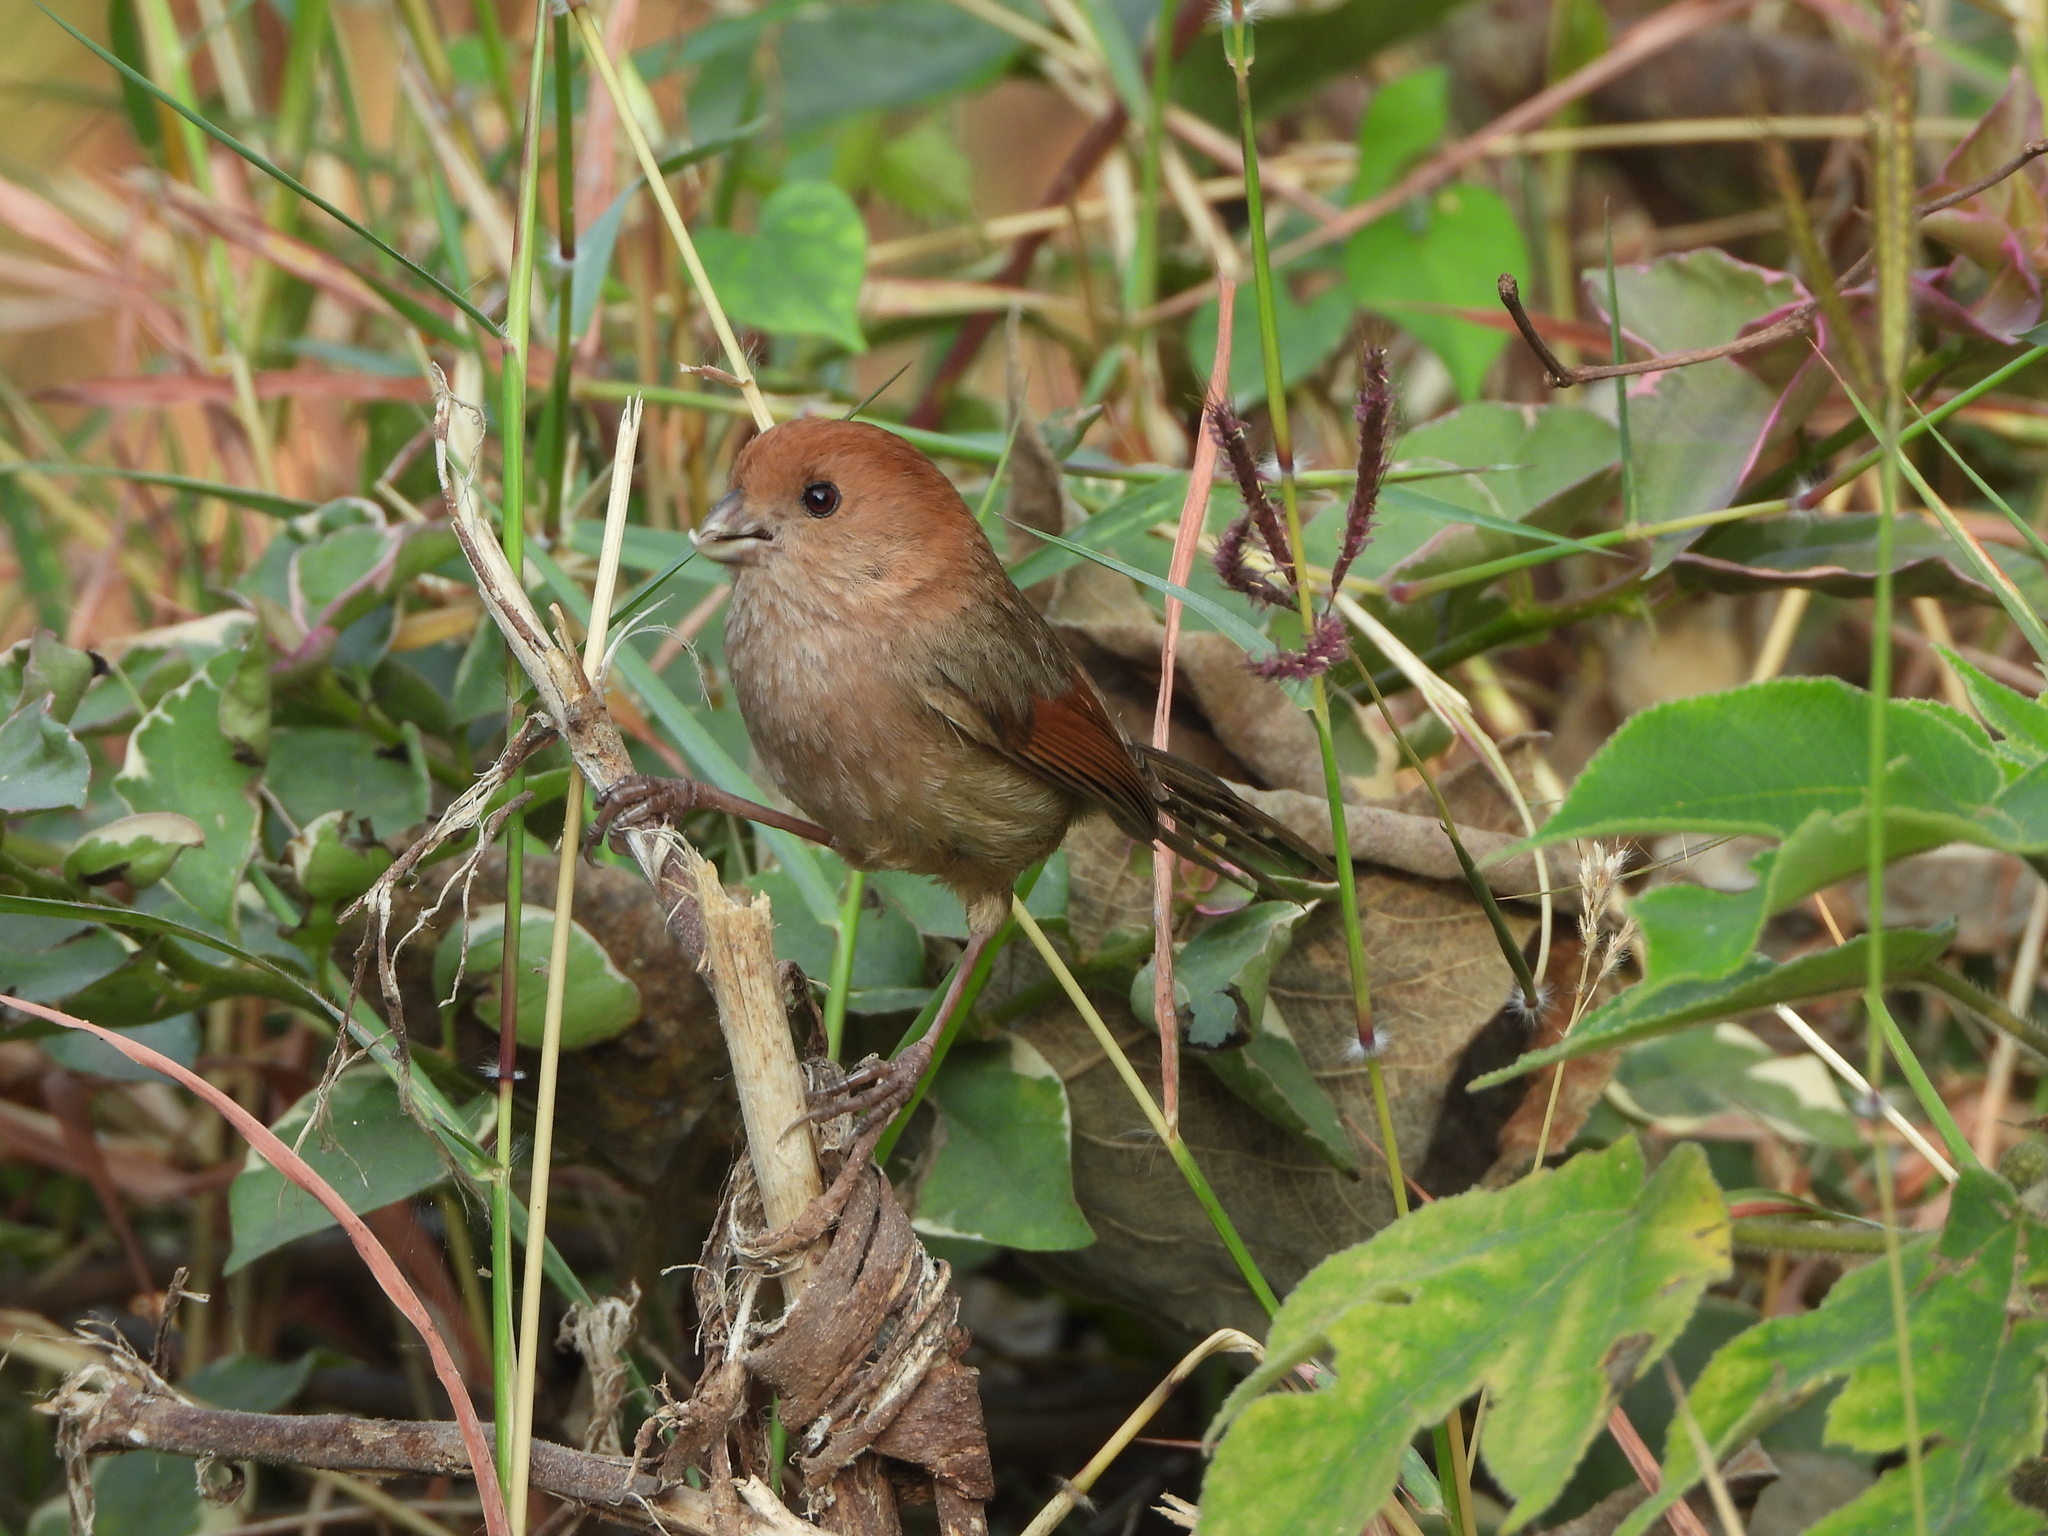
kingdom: Animalia
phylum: Chordata
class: Aves
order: Passeriformes
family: Sylviidae
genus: Sinosuthora
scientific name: Sinosuthora webbiana
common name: Vinous-throated parrotbill
